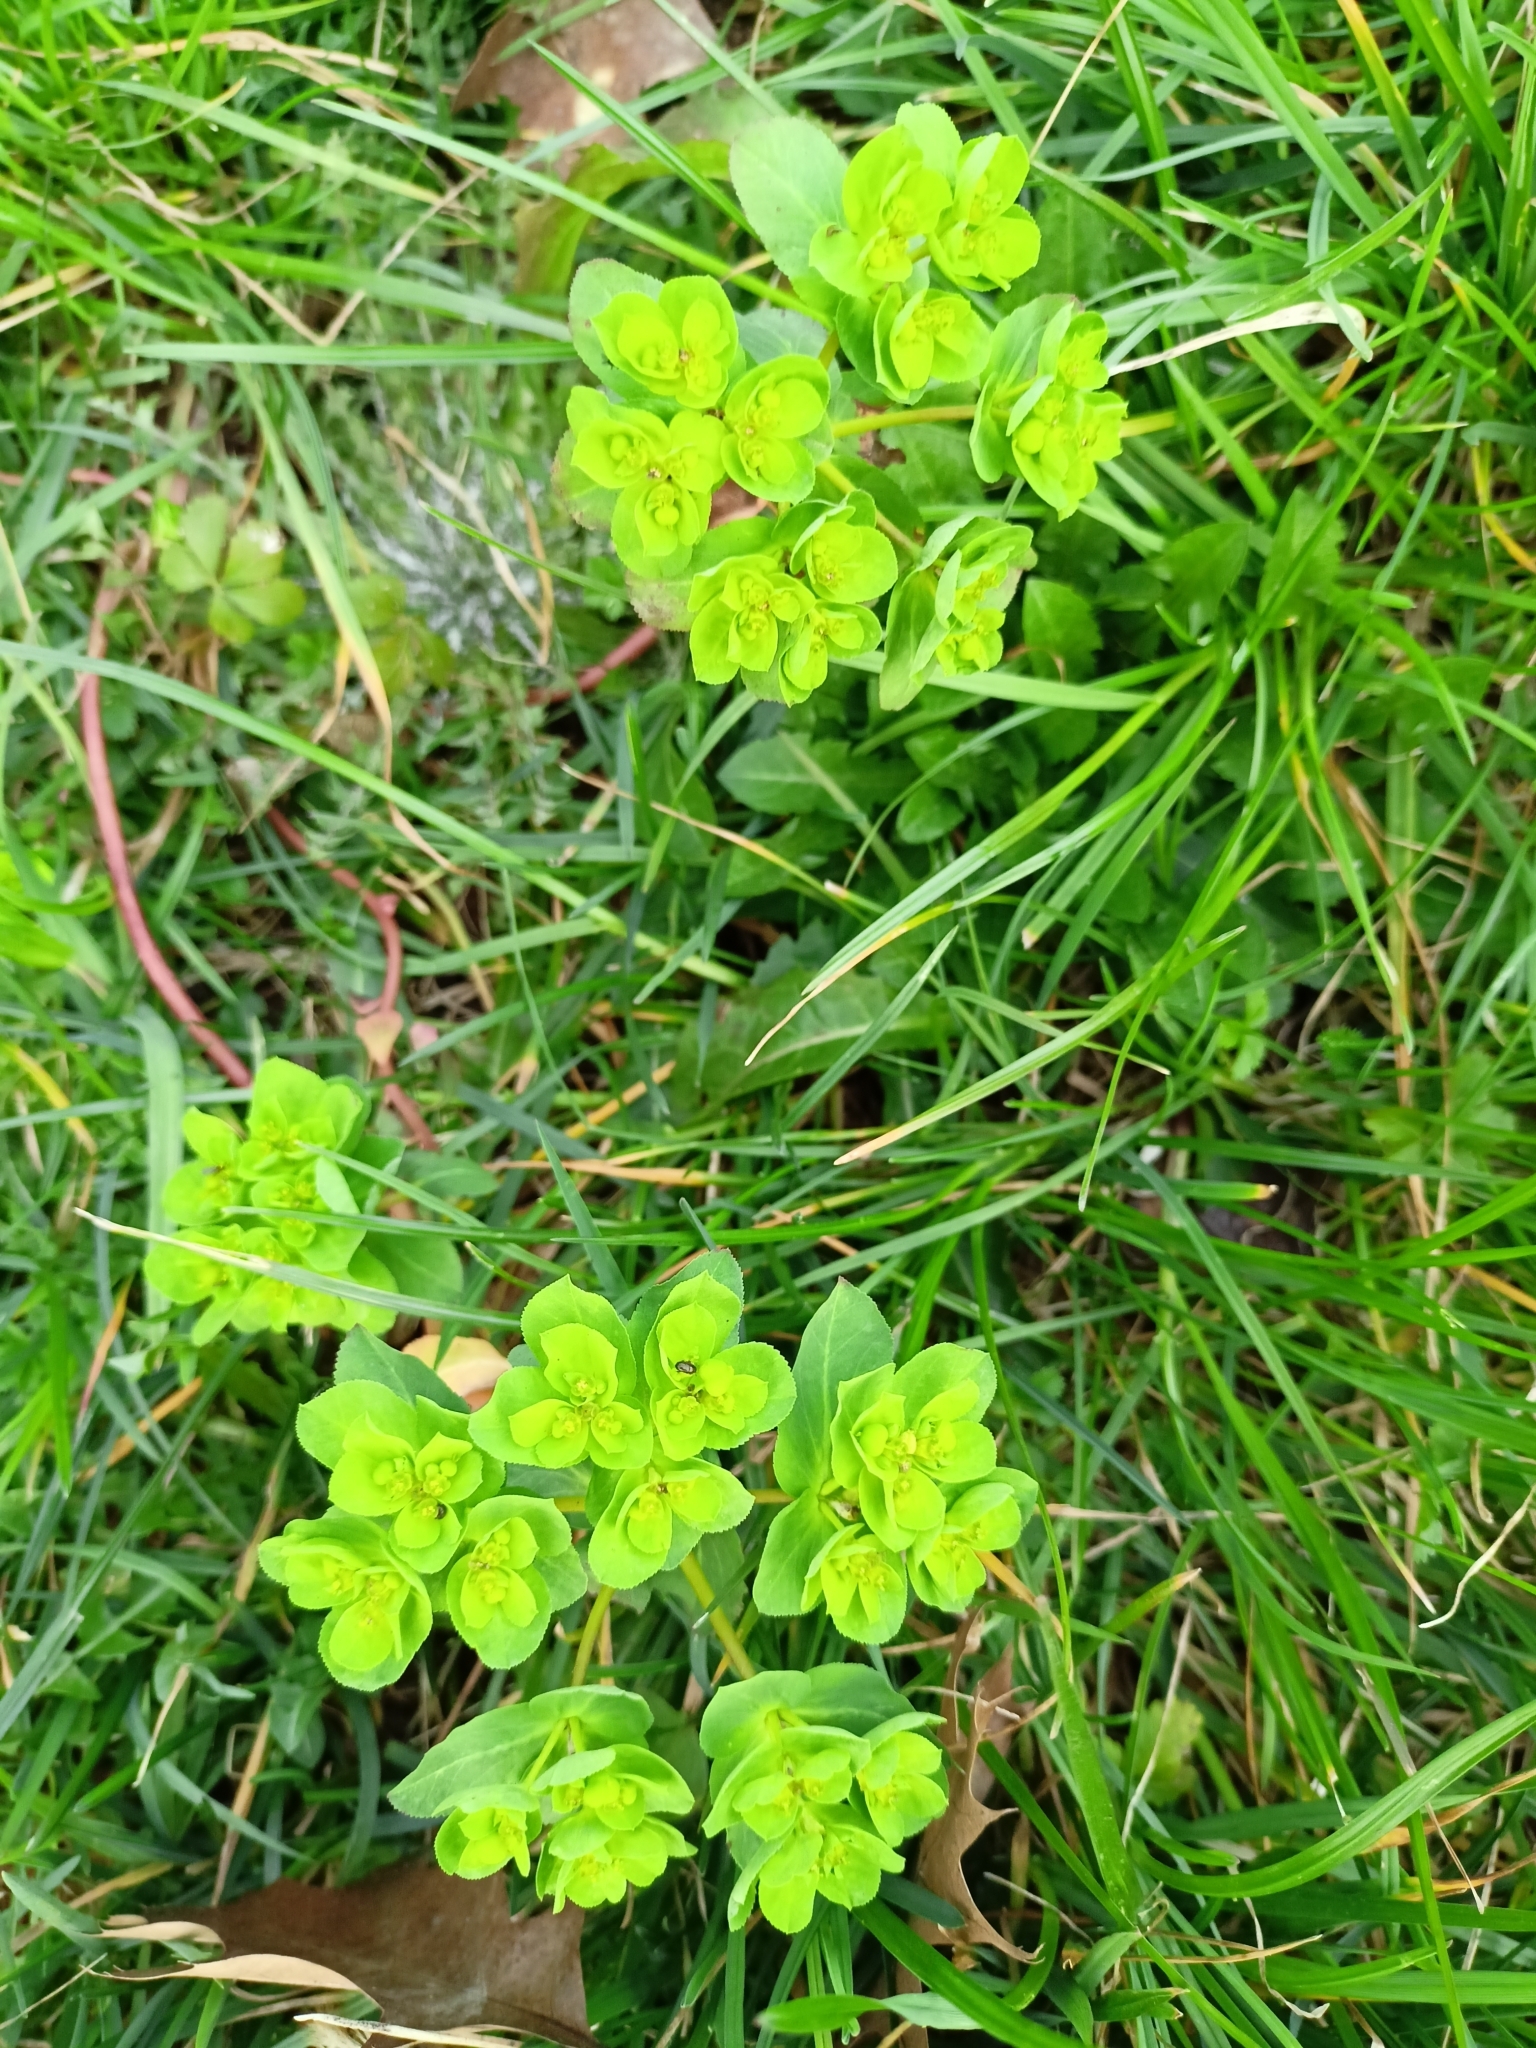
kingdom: Plantae
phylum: Tracheophyta
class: Magnoliopsida
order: Malpighiales
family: Euphorbiaceae
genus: Euphorbia
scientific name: Euphorbia helioscopia
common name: Sun spurge
